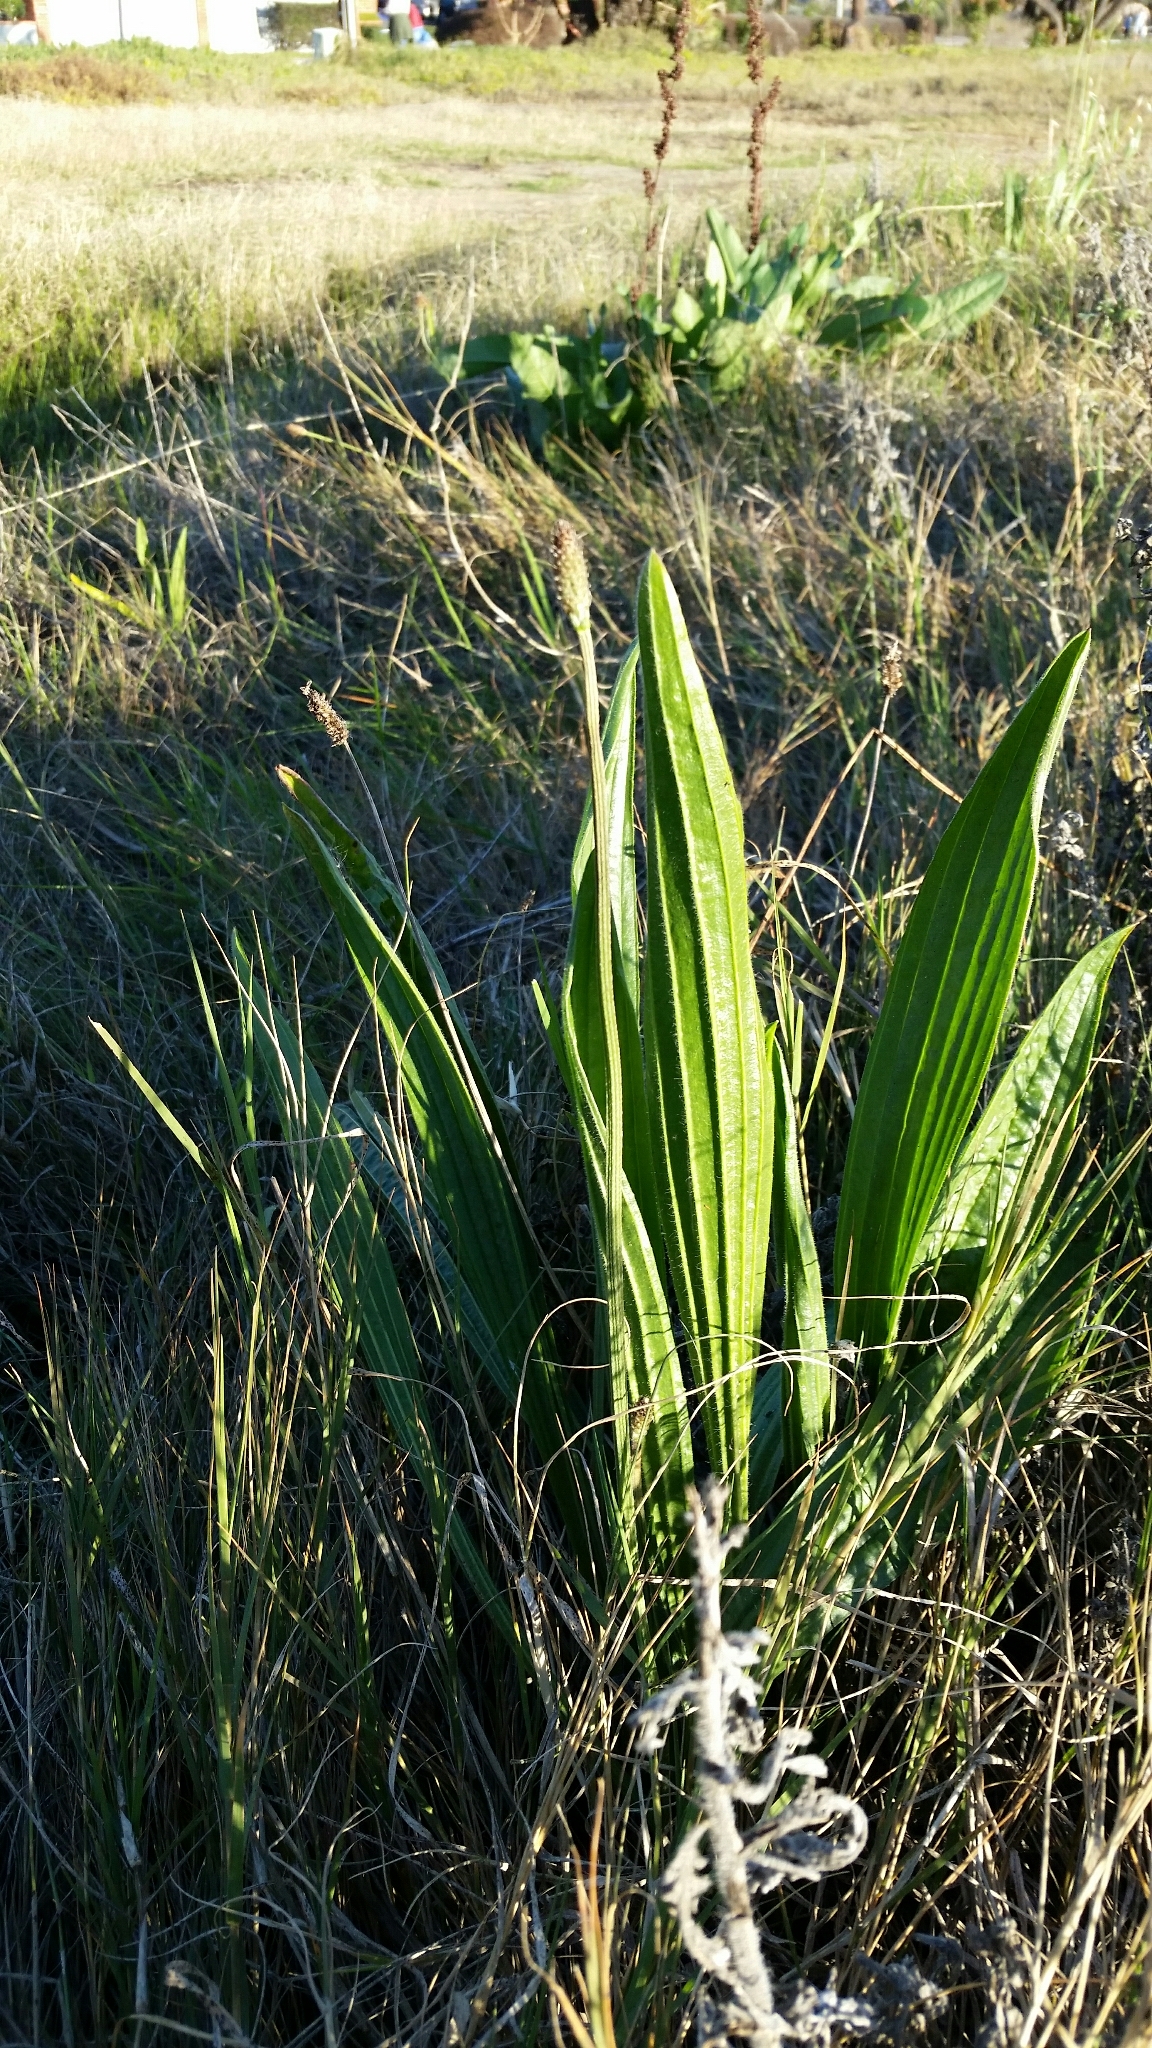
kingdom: Plantae
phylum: Tracheophyta
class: Magnoliopsida
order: Lamiales
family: Plantaginaceae
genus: Plantago
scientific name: Plantago lanceolata
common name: Ribwort plantain
